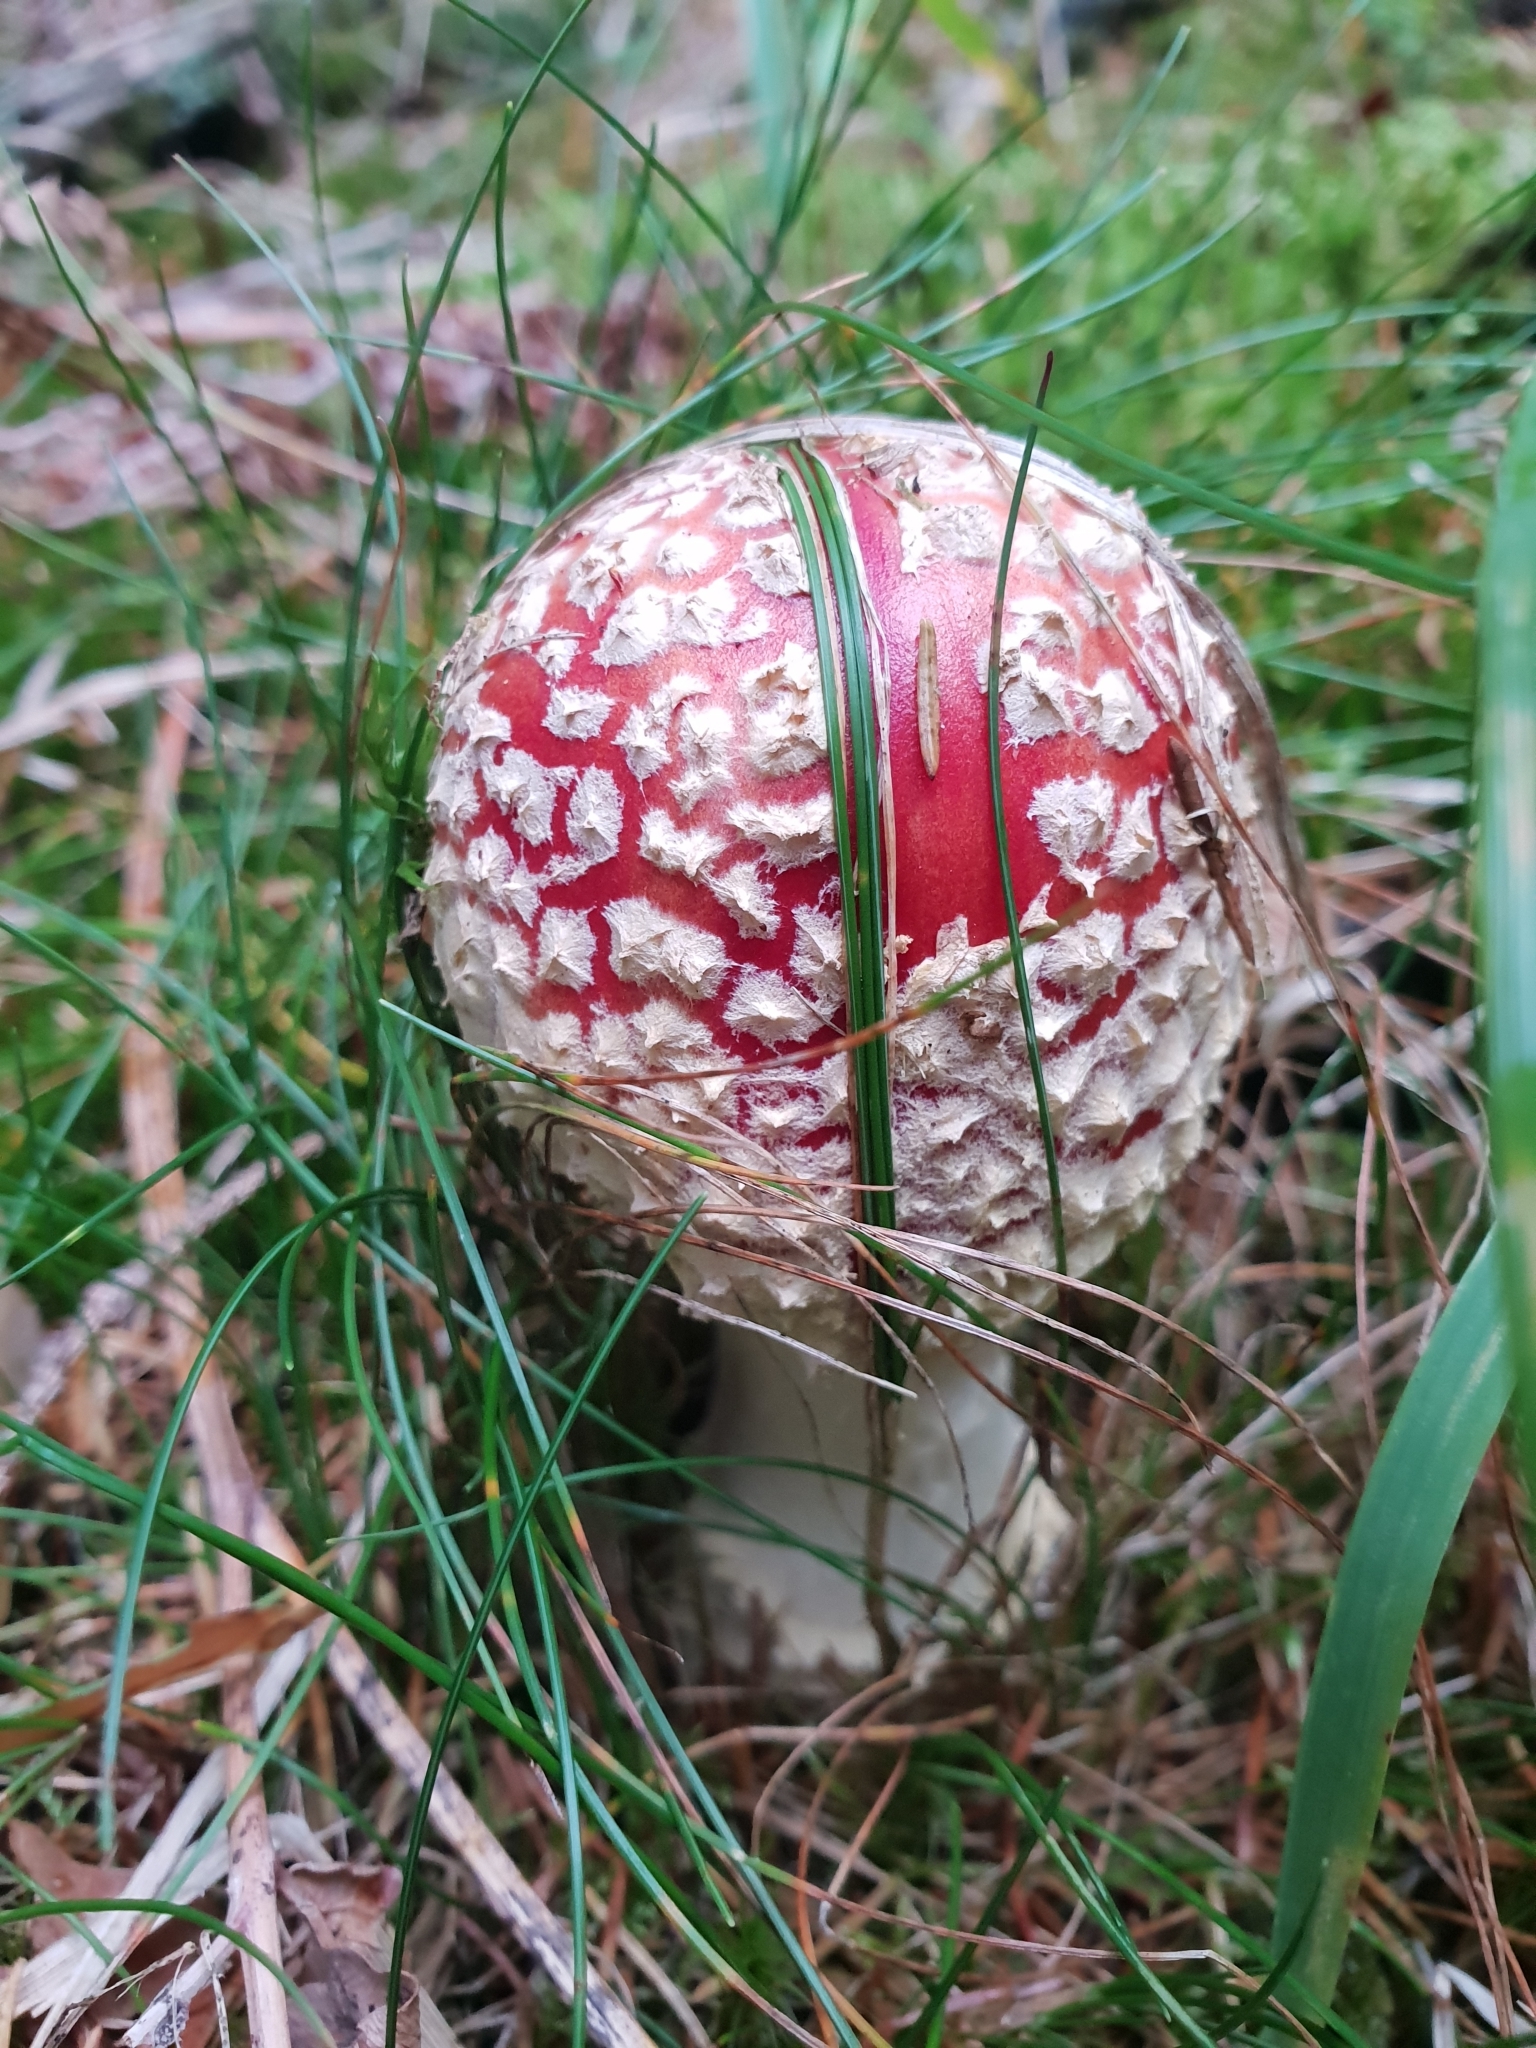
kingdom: Fungi
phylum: Basidiomycota
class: Agaricomycetes
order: Agaricales
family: Amanitaceae
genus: Amanita
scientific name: Amanita muscaria
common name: Fly agaric
